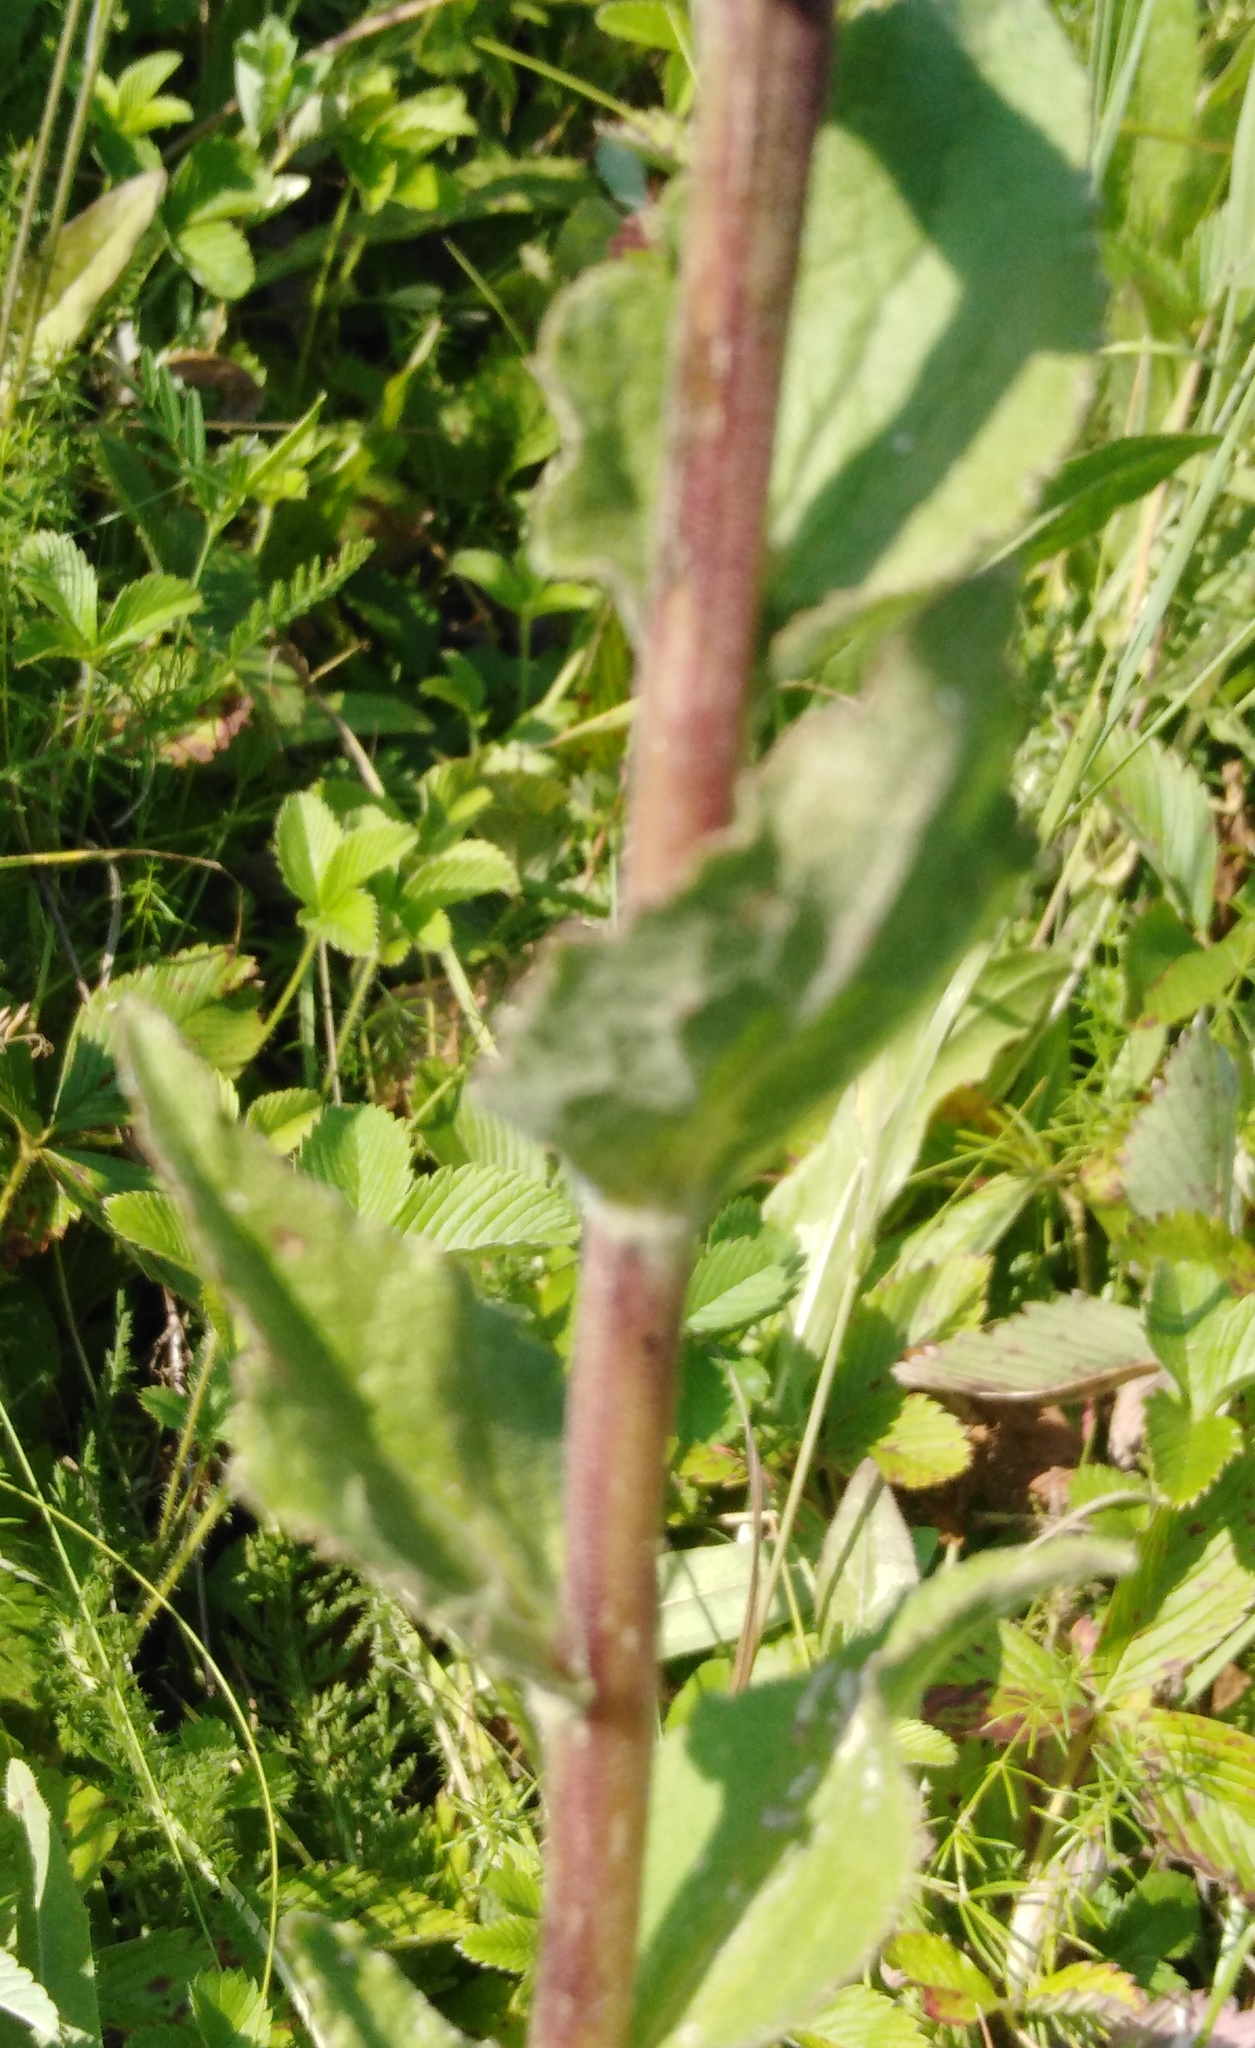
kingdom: Plantae
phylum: Tracheophyta
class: Magnoliopsida
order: Asterales
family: Campanulaceae
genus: Campanula
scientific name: Campanula glomerata
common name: Clustered bellflower
